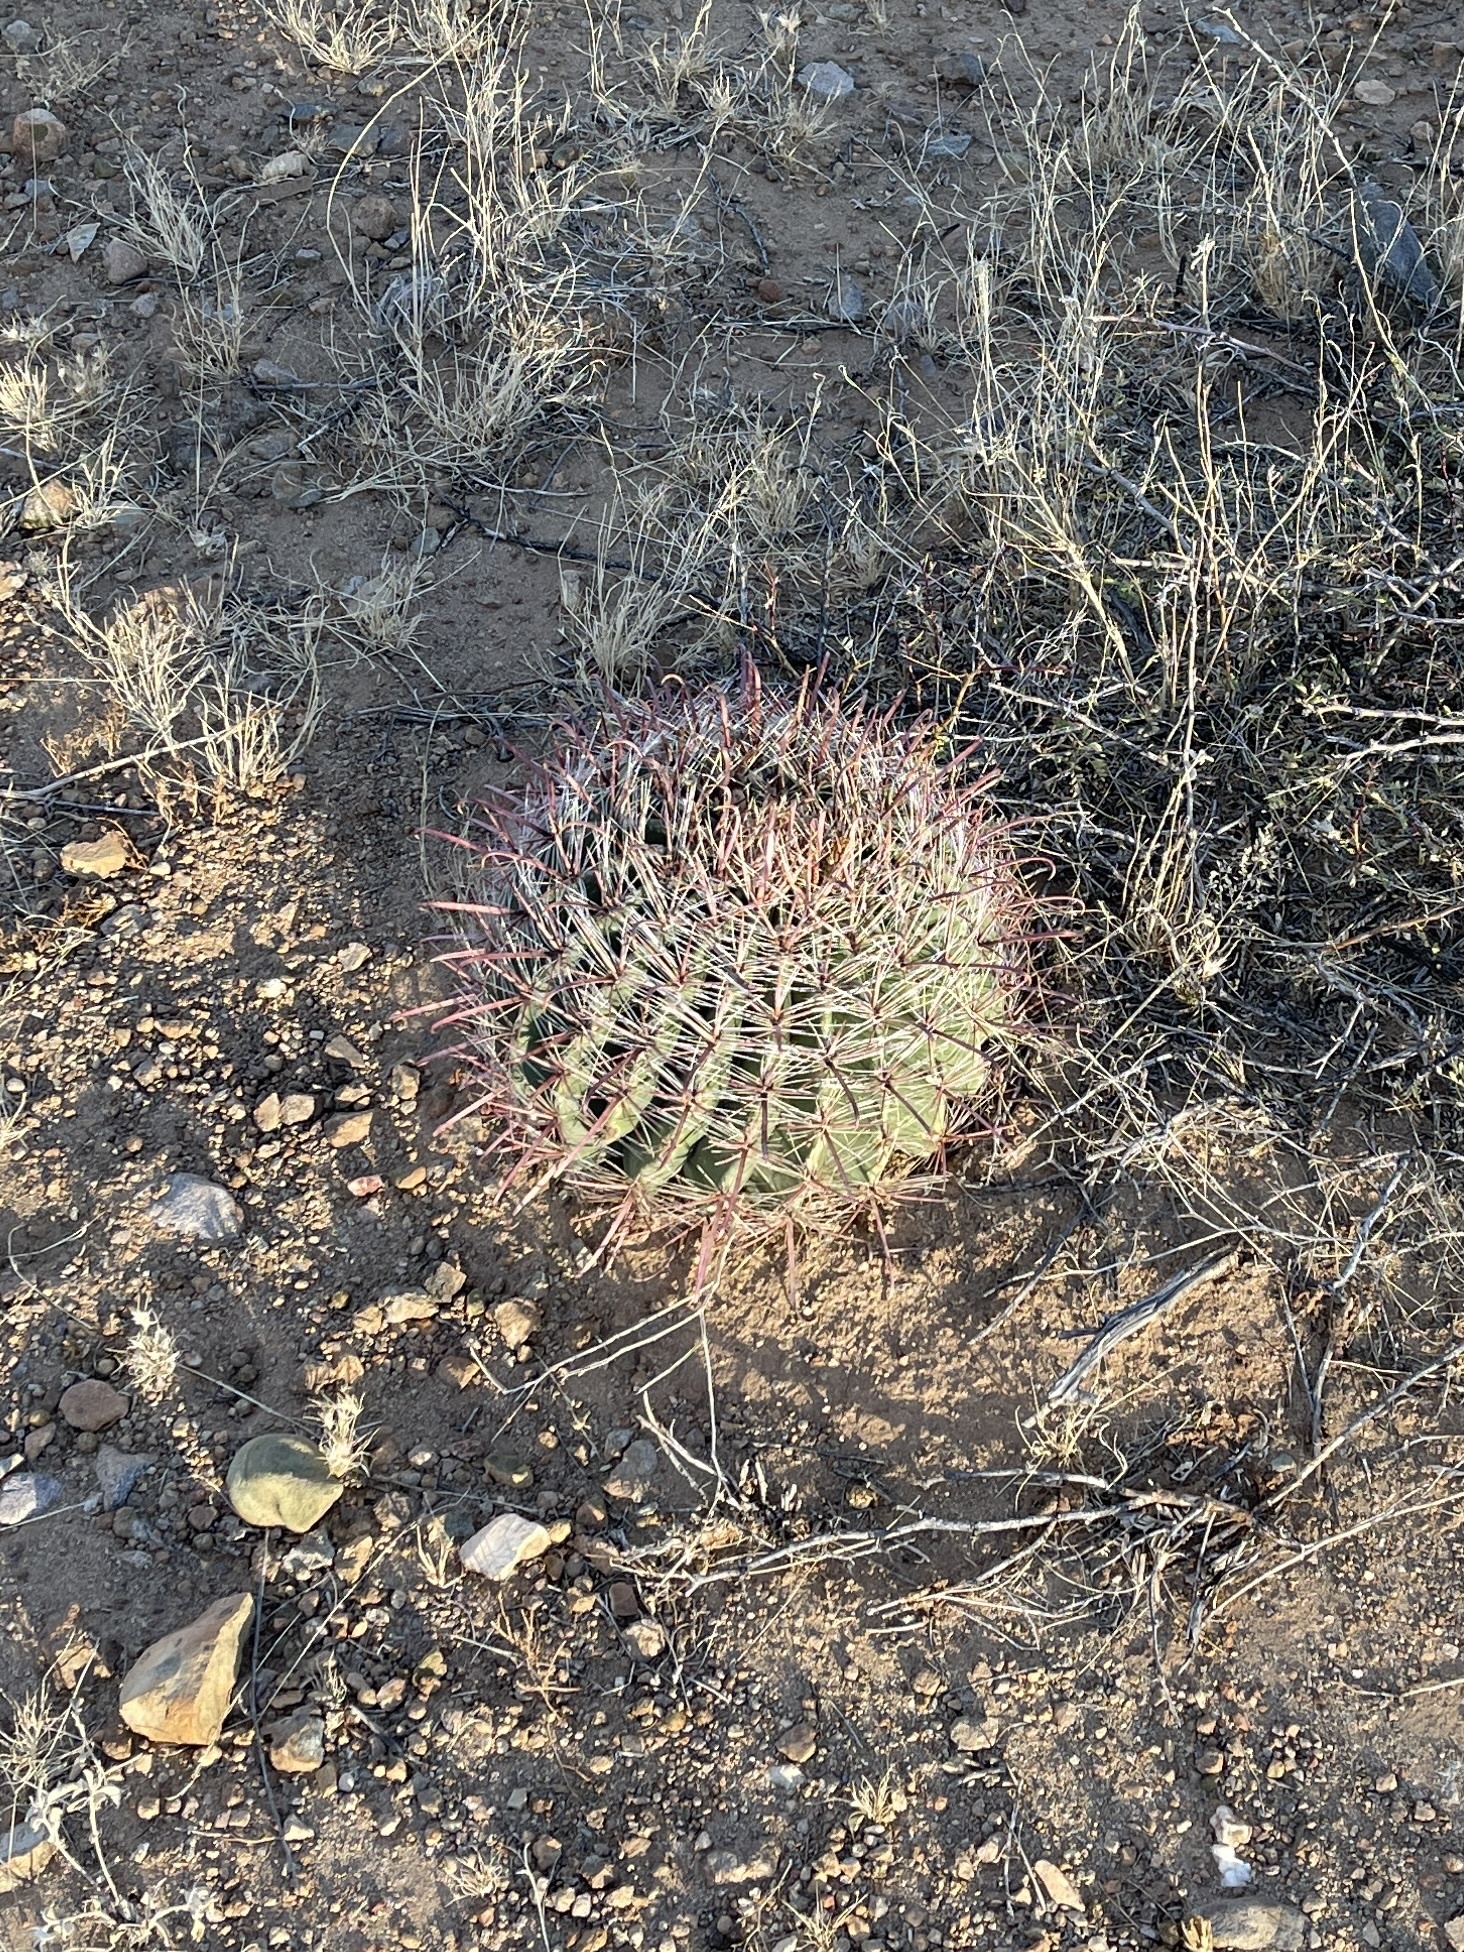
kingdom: Plantae
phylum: Tracheophyta
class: Magnoliopsida
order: Caryophyllales
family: Cactaceae
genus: Ferocactus
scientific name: Ferocactus wislizeni
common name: Candy barrel cactus
